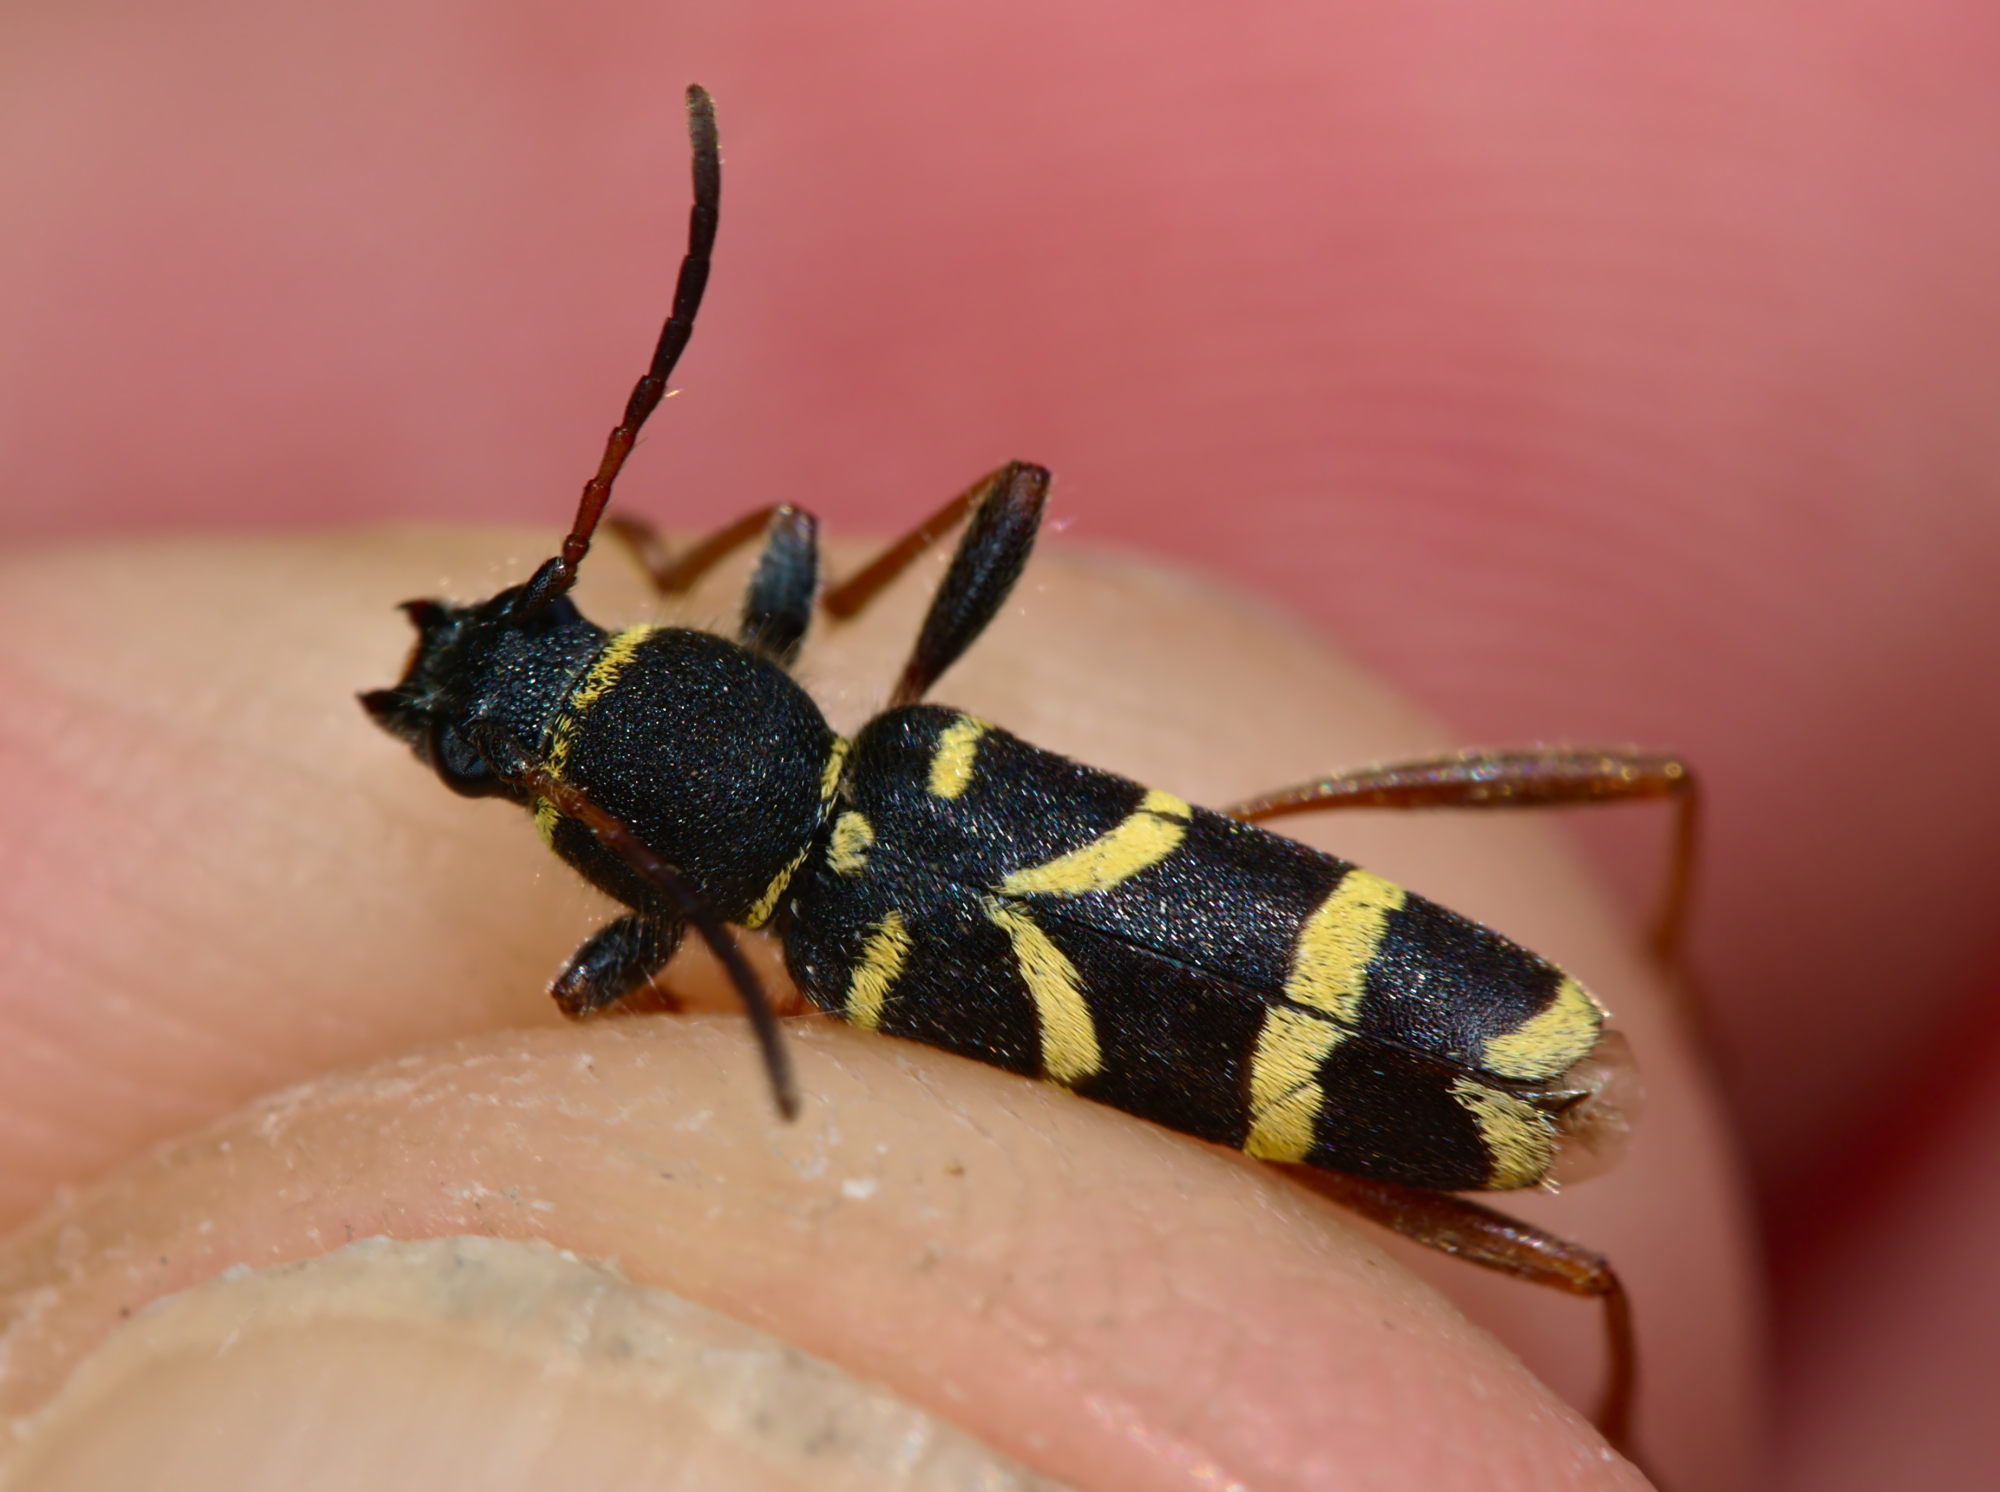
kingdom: Animalia
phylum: Arthropoda
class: Insecta
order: Coleoptera
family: Cerambycidae
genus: Clytus
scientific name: Clytus arietis
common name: Wasp beetle
